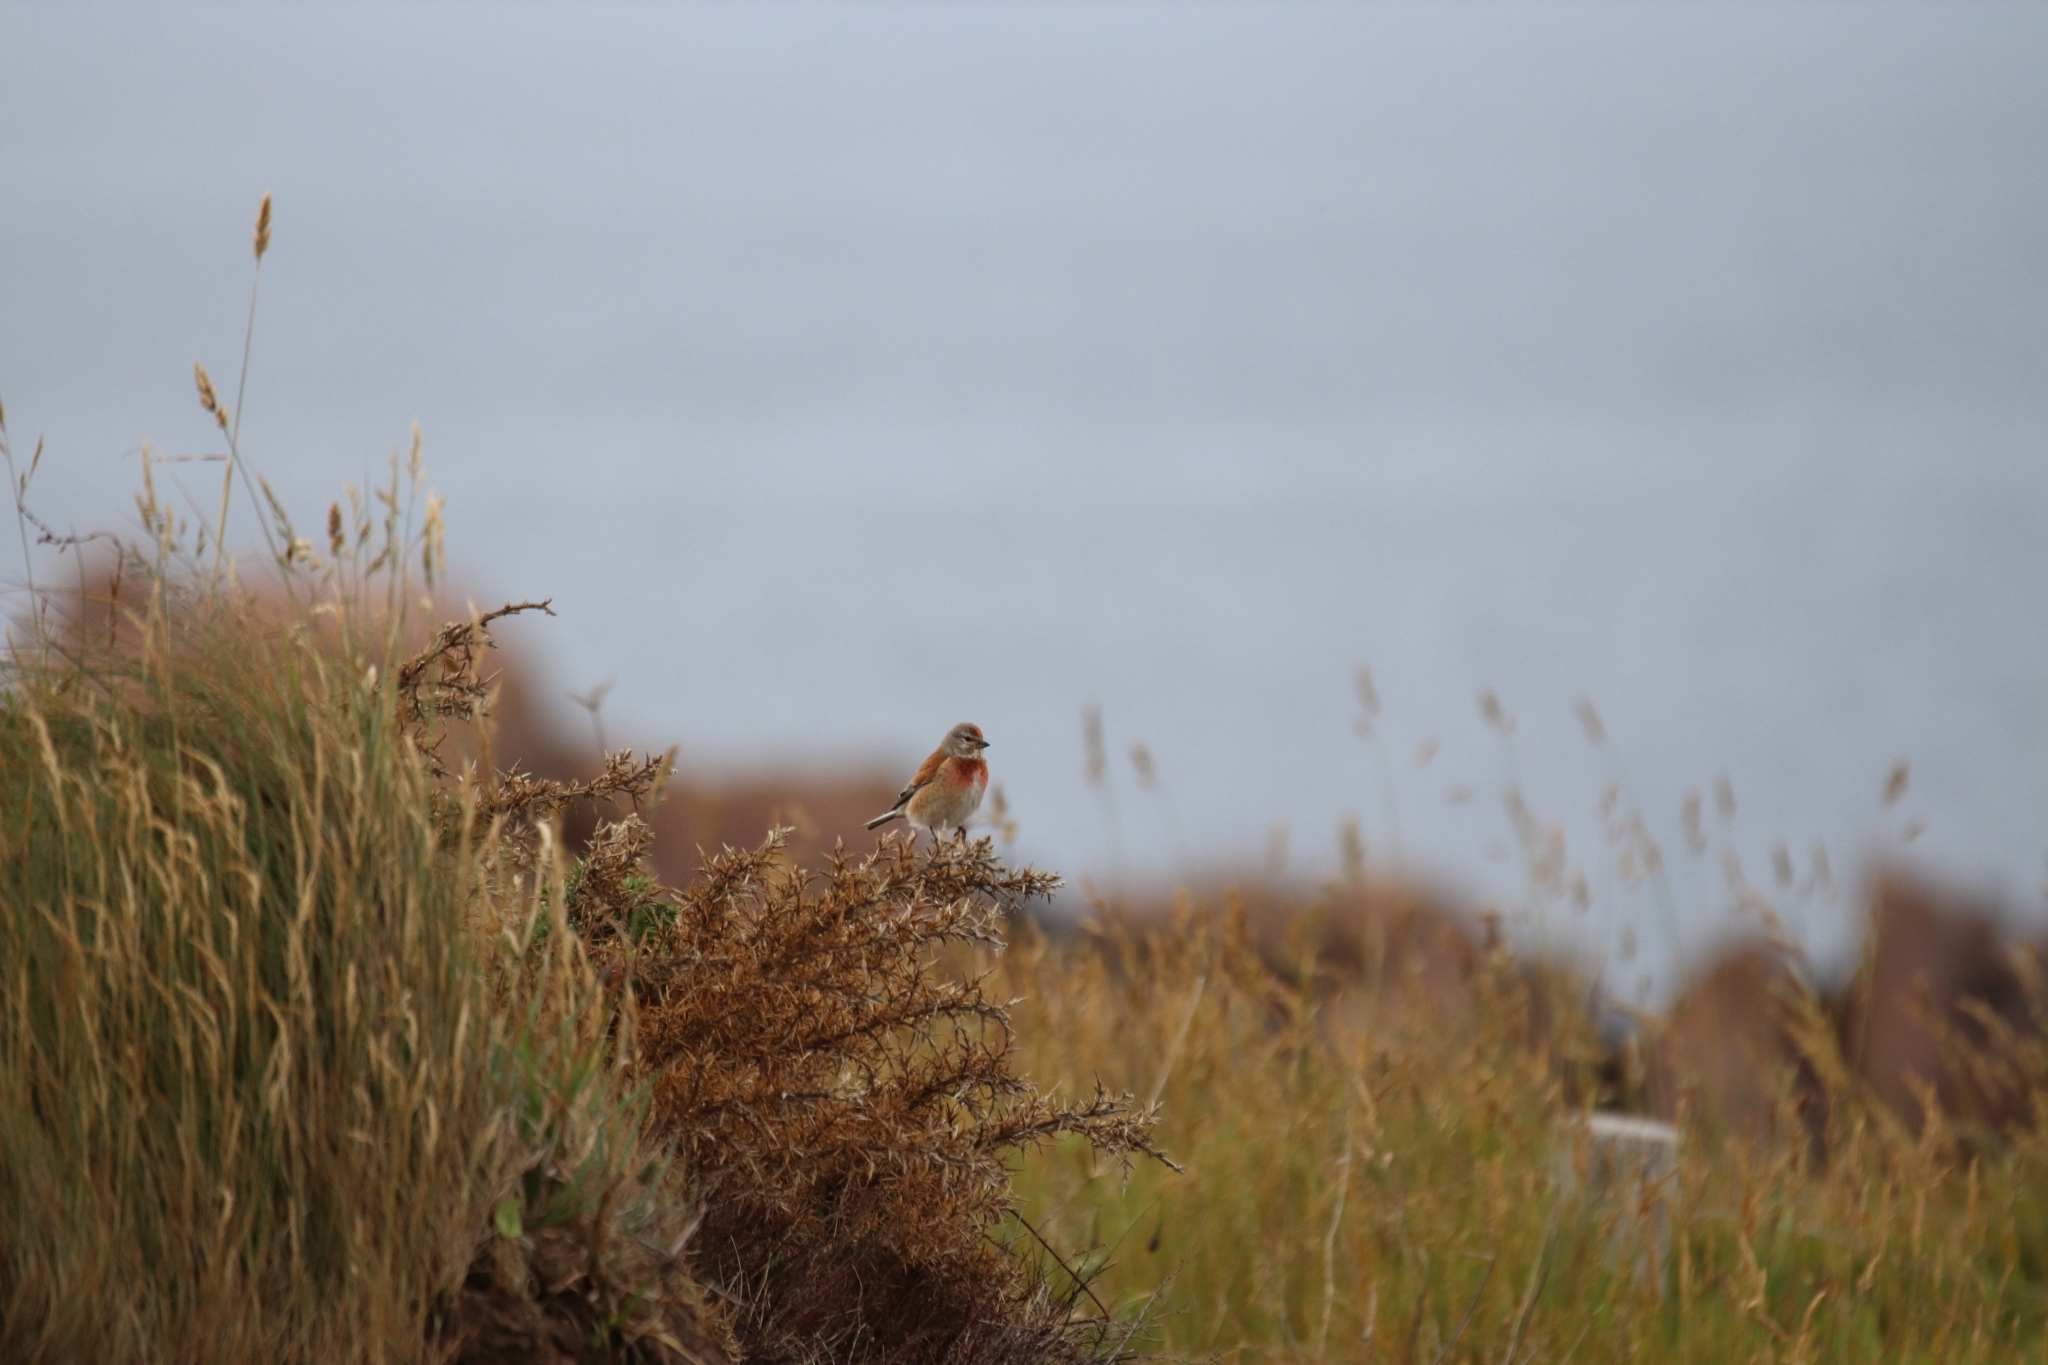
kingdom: Animalia
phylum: Chordata
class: Aves
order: Passeriformes
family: Fringillidae
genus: Linaria
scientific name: Linaria cannabina
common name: Common linnet
